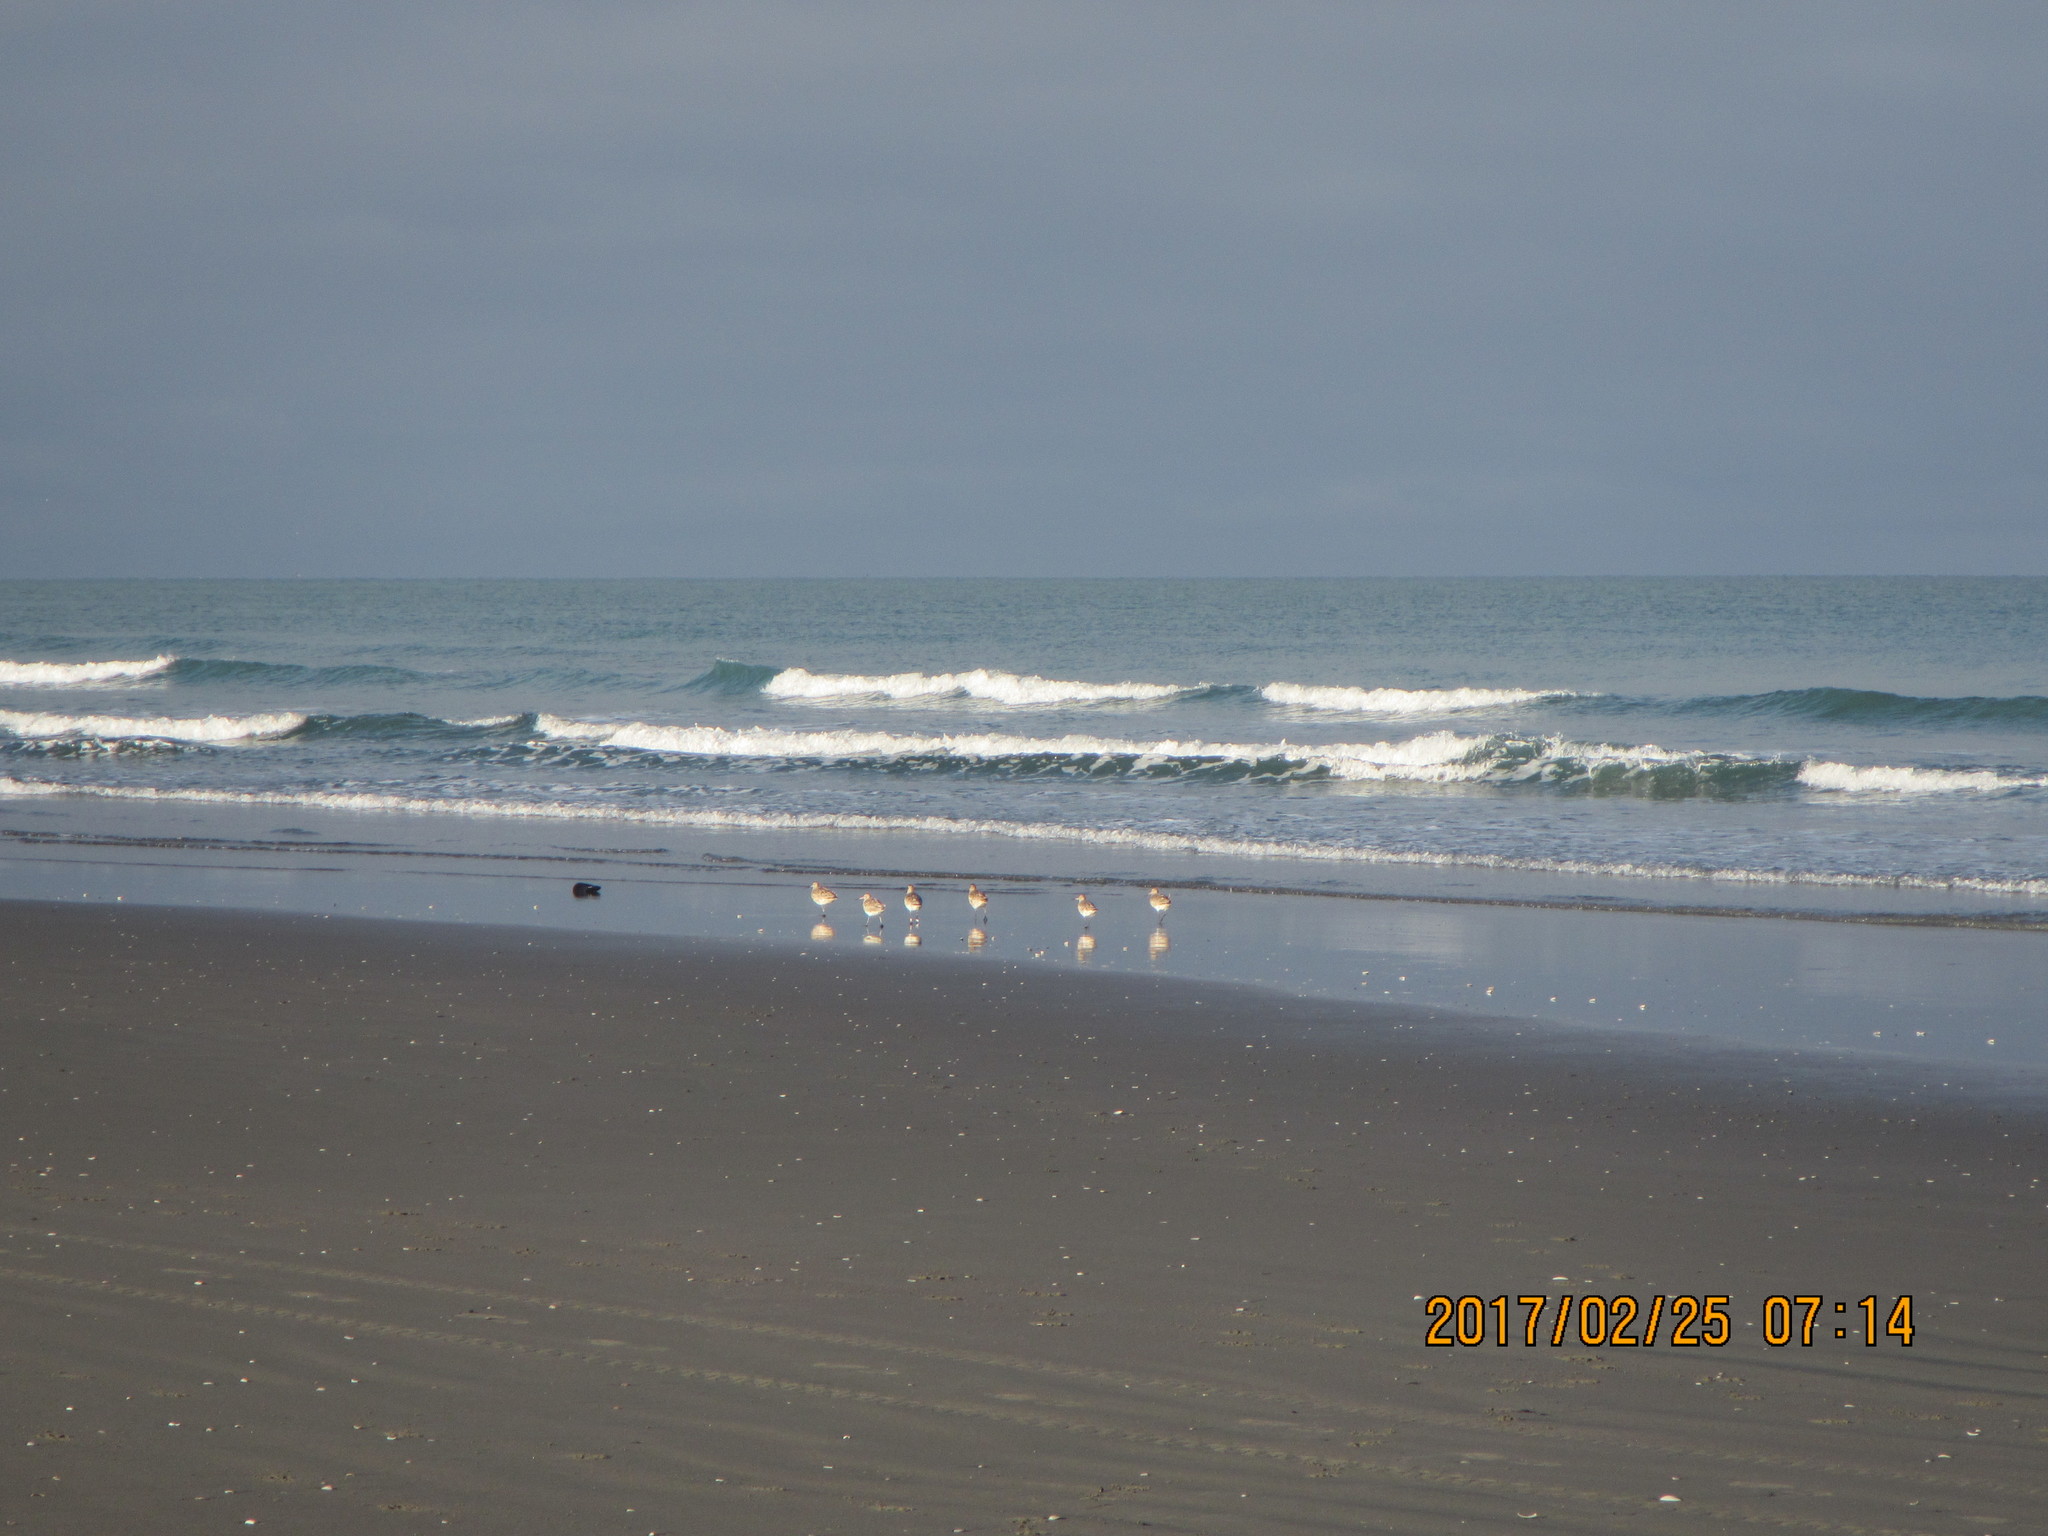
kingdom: Animalia
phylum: Chordata
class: Aves
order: Charadriiformes
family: Scolopacidae
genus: Limosa
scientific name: Limosa lapponica
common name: Bar-tailed godwit
